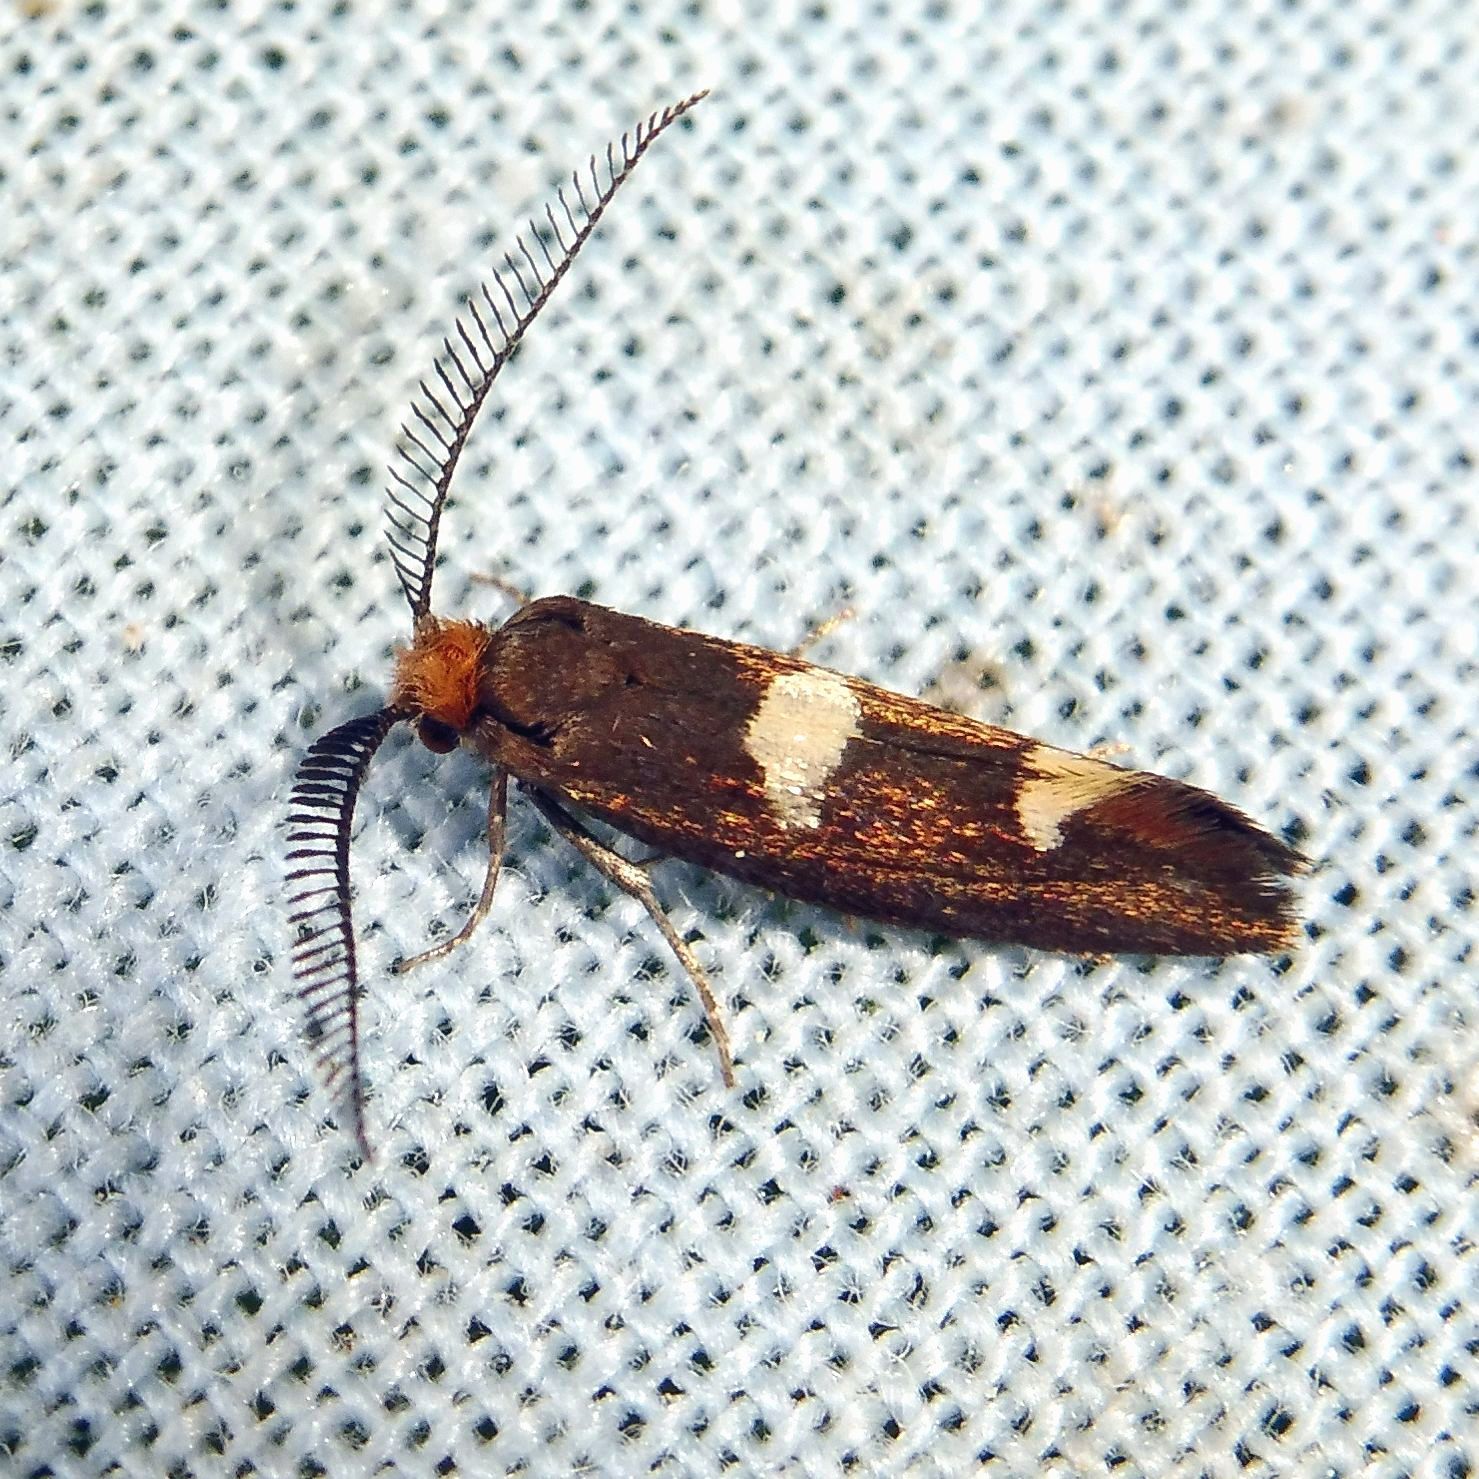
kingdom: Animalia
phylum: Arthropoda
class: Insecta
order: Lepidoptera
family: Incurvariidae
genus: Incurvaria
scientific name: Incurvaria masculella
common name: Feathered leaf-cutter
